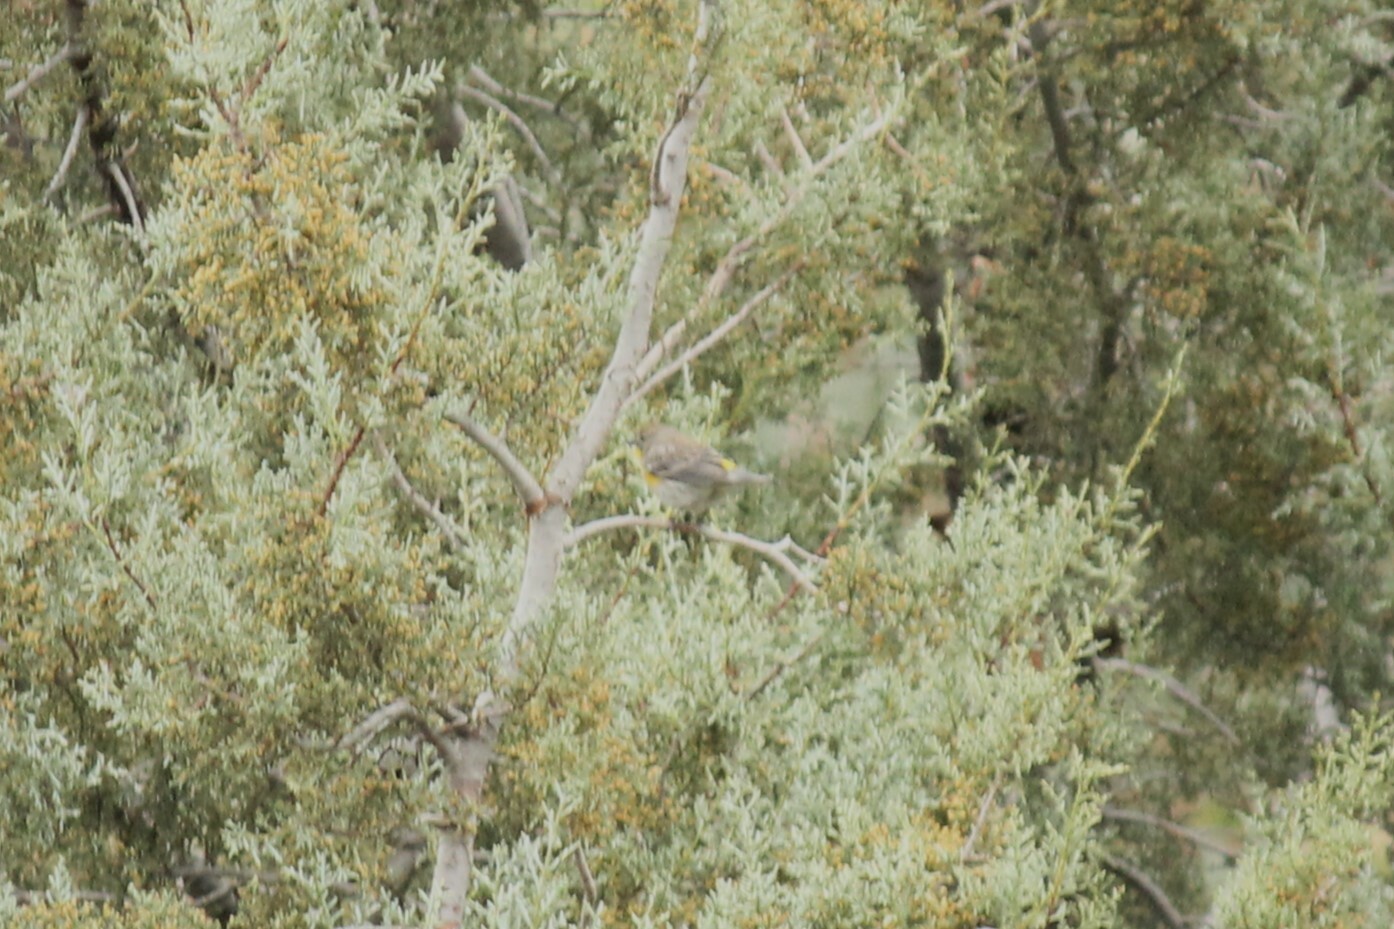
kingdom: Animalia
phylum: Chordata
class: Aves
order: Passeriformes
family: Parulidae
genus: Setophaga
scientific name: Setophaga coronata
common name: Myrtle warbler
